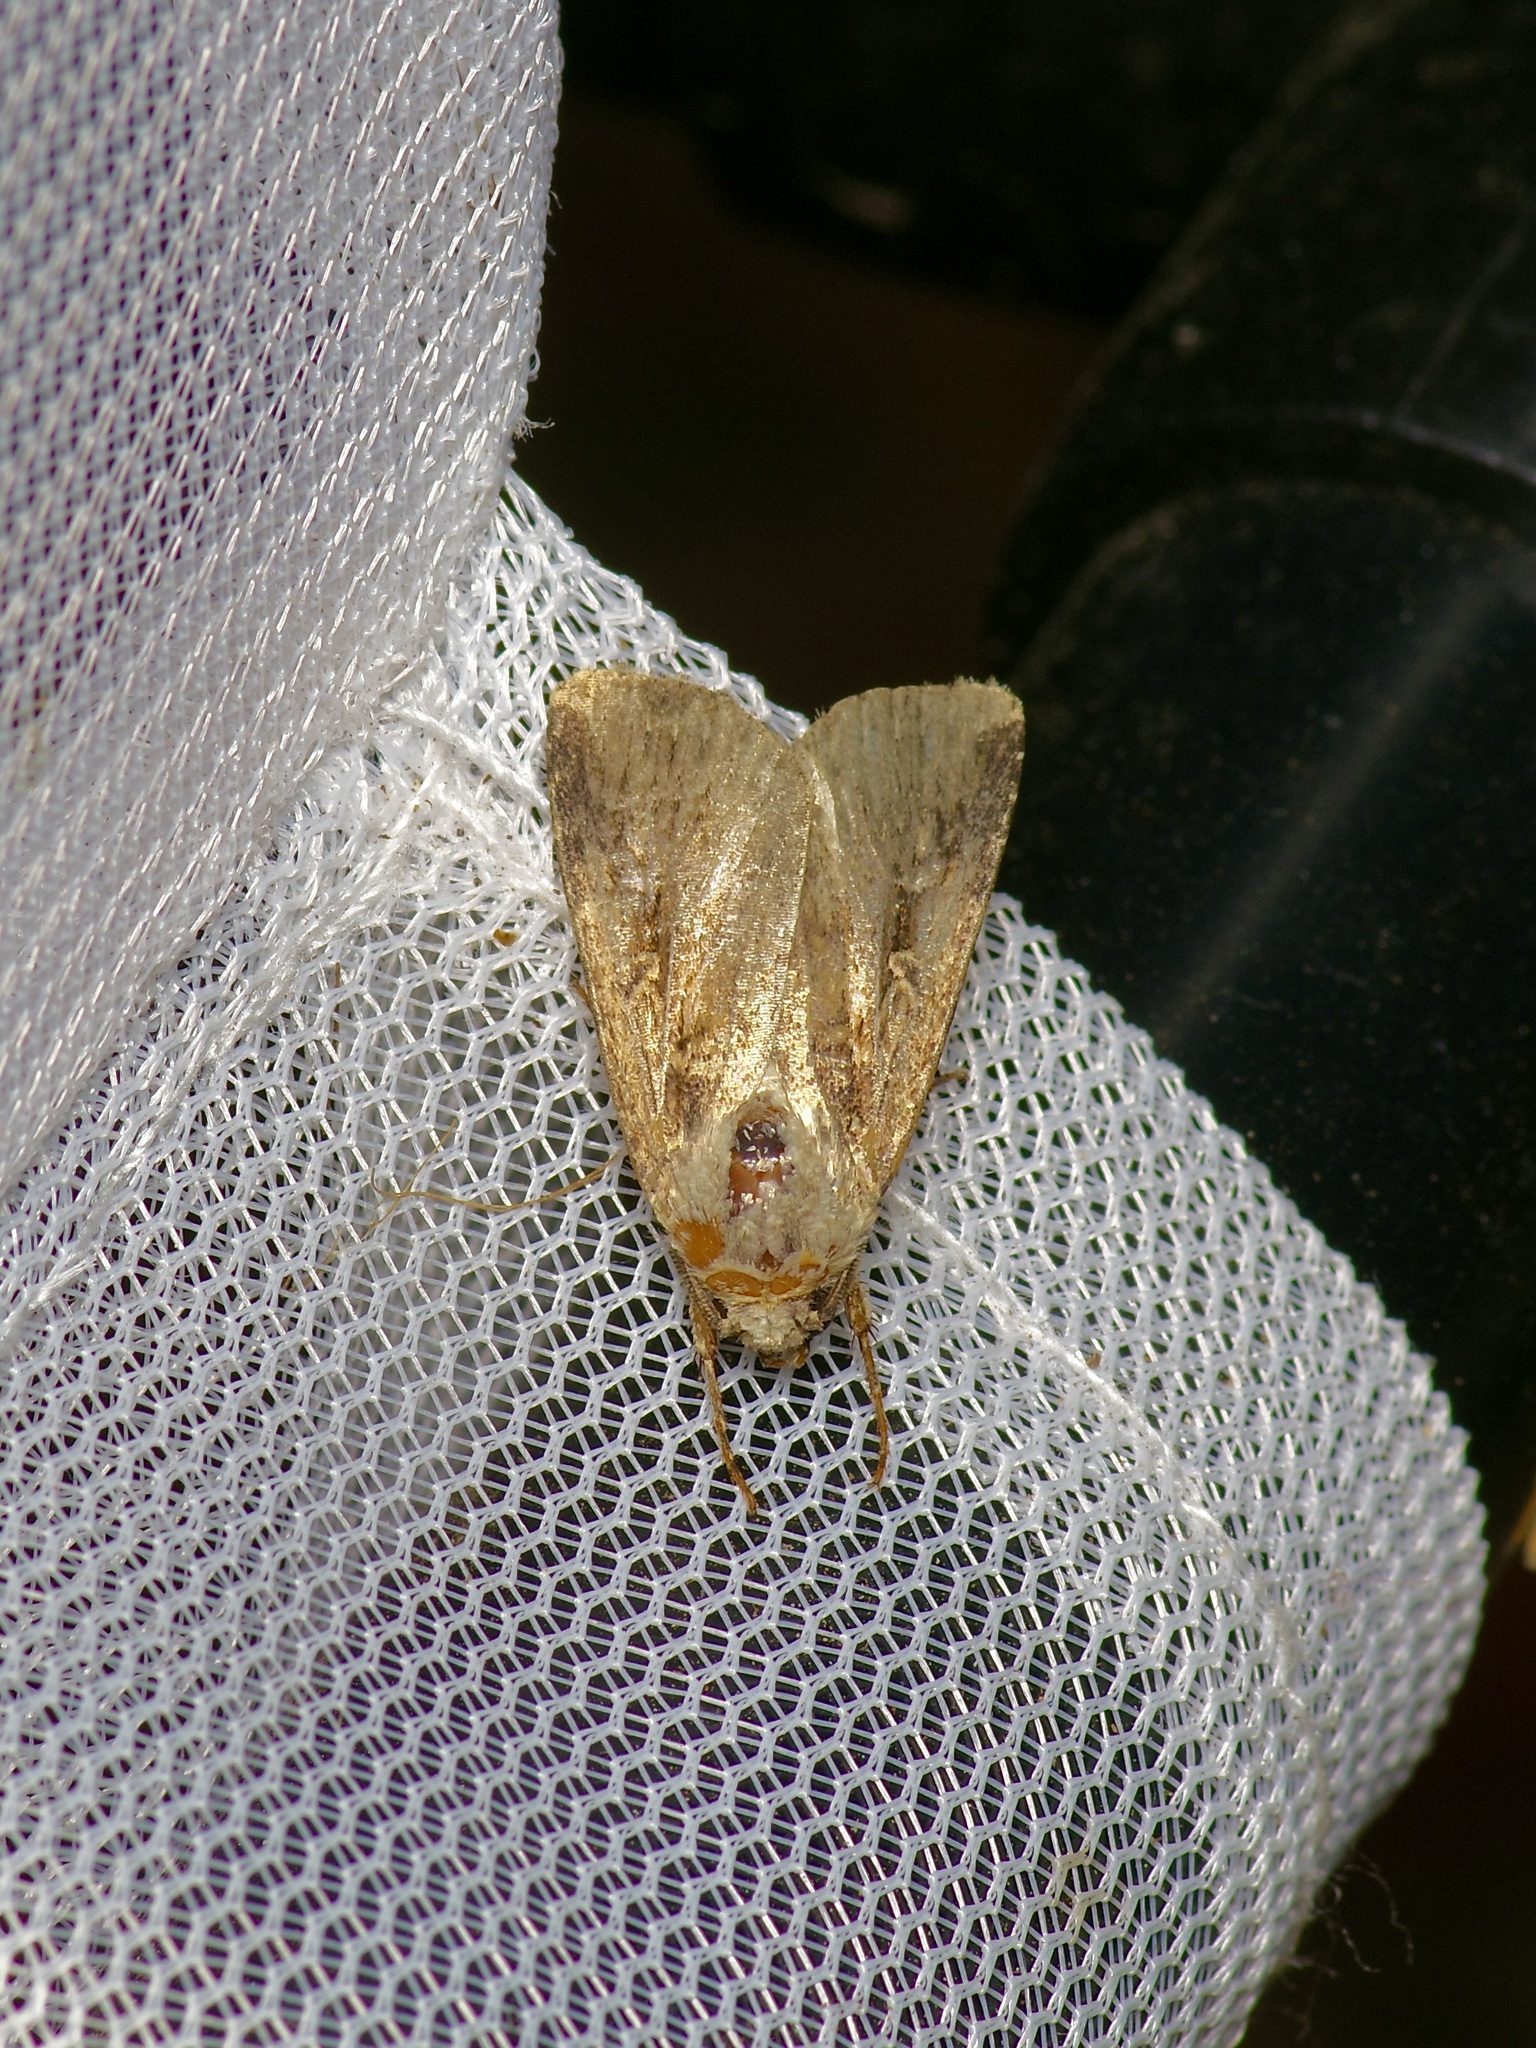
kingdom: Animalia
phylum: Arthropoda
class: Insecta
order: Lepidoptera
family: Noctuidae
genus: Feltia
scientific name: Feltia subterranea
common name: Granulate cutworm
